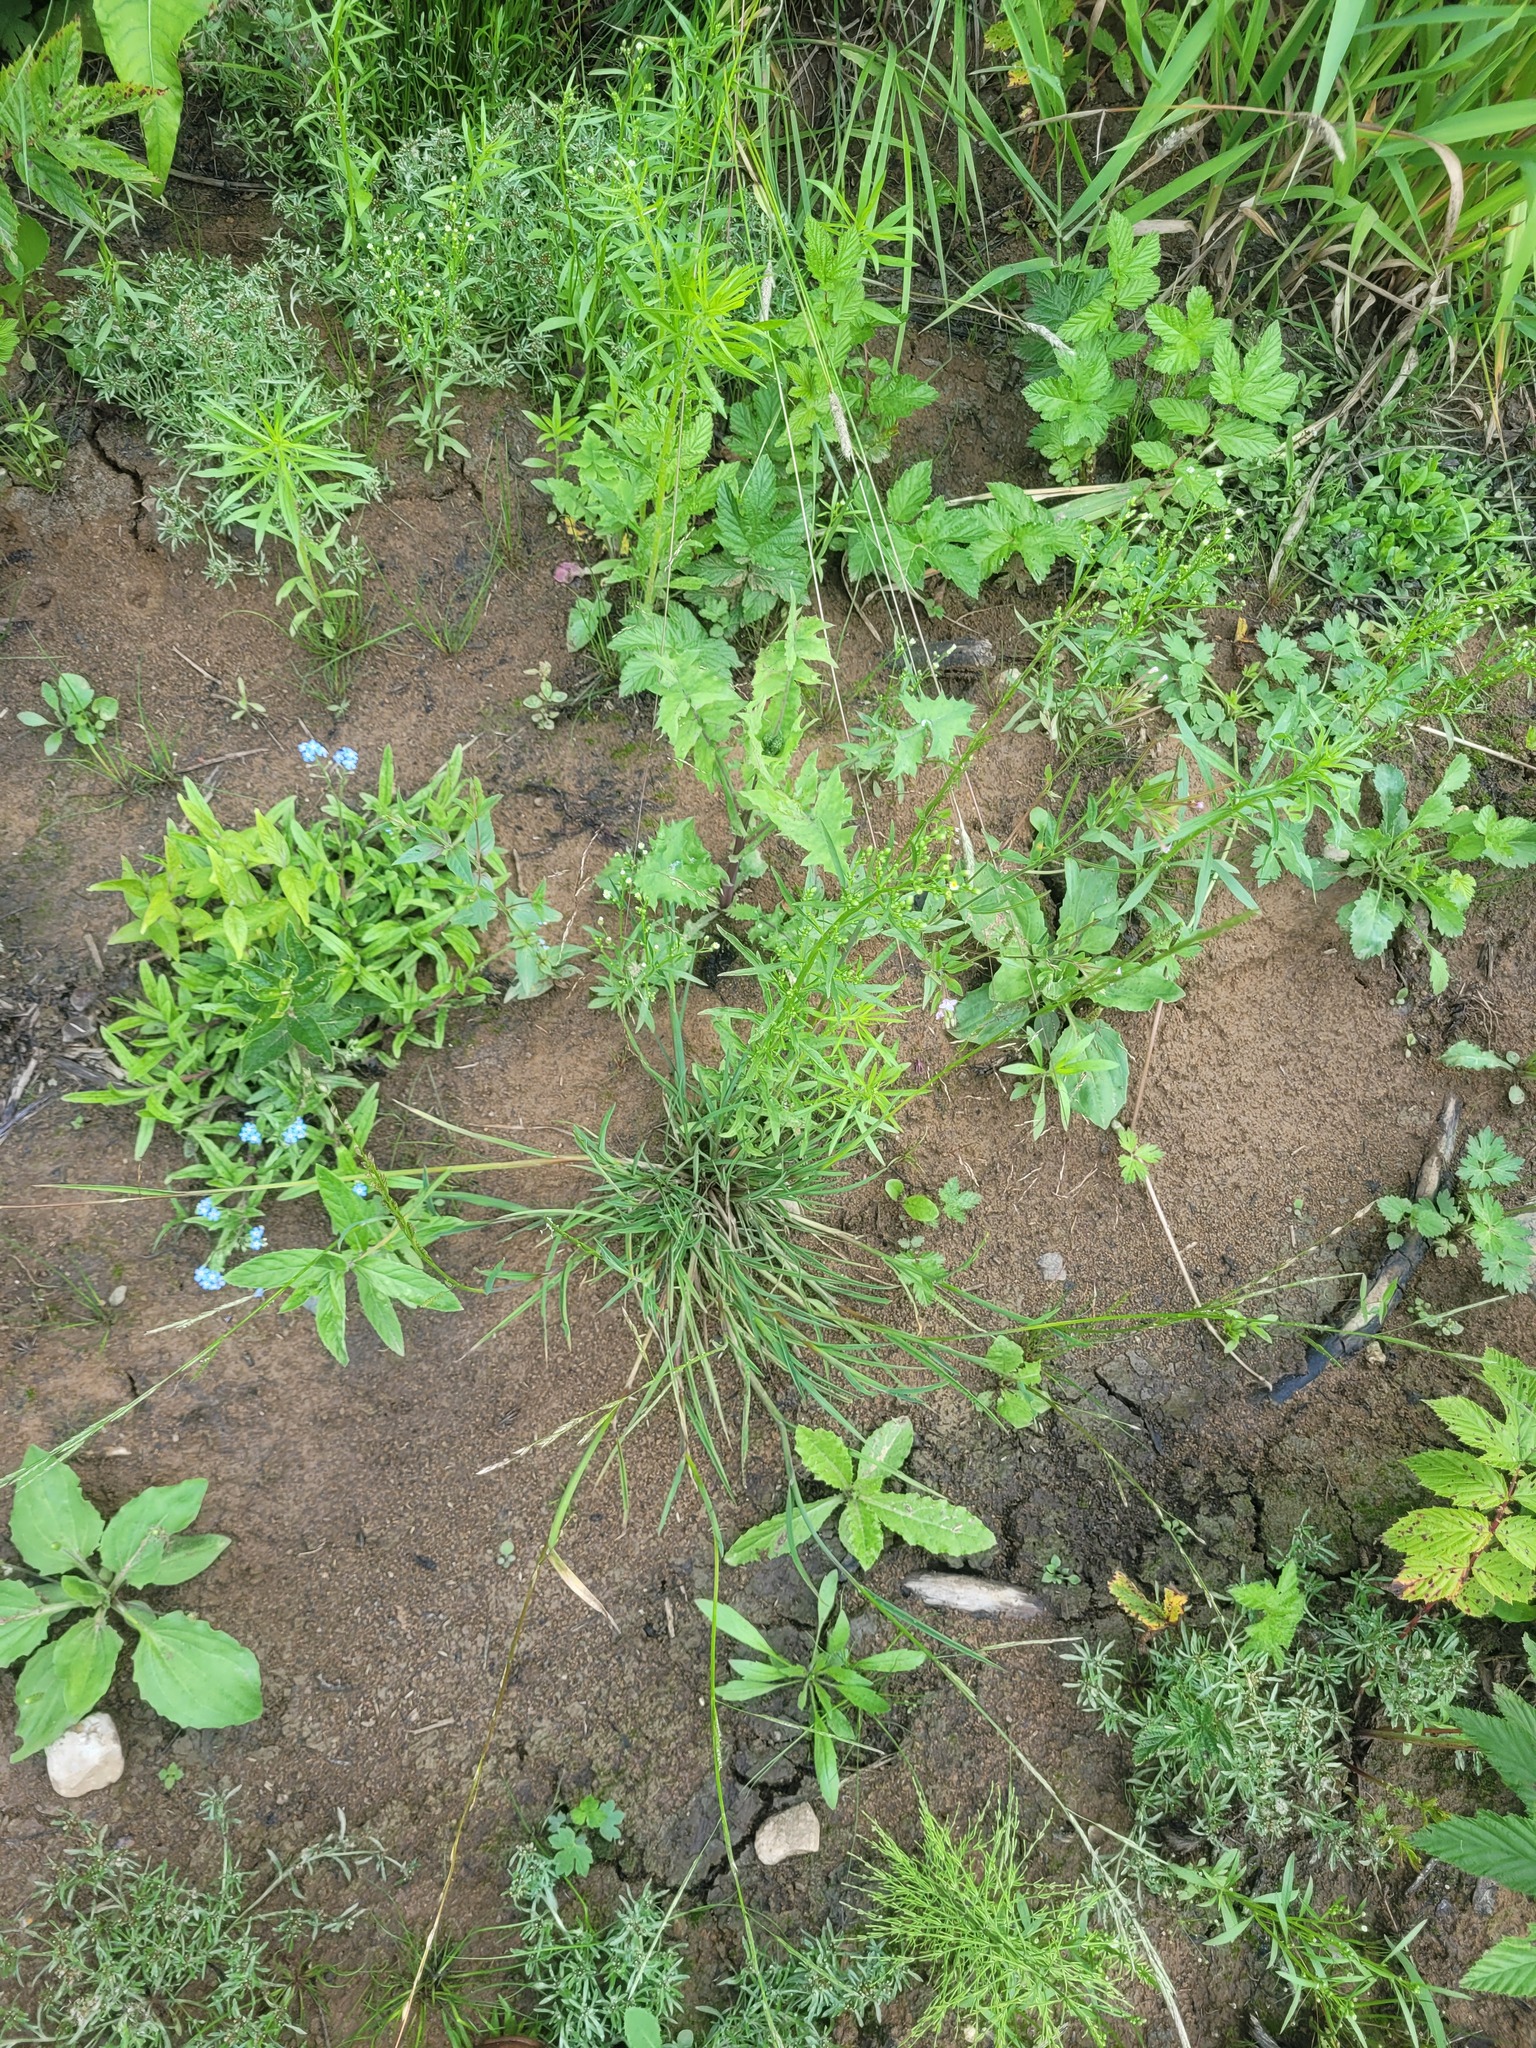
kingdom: Plantae
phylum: Tracheophyta
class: Liliopsida
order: Poales
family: Poaceae
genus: Glyceria
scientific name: Glyceria fluitans
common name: Floating sweet-grass
